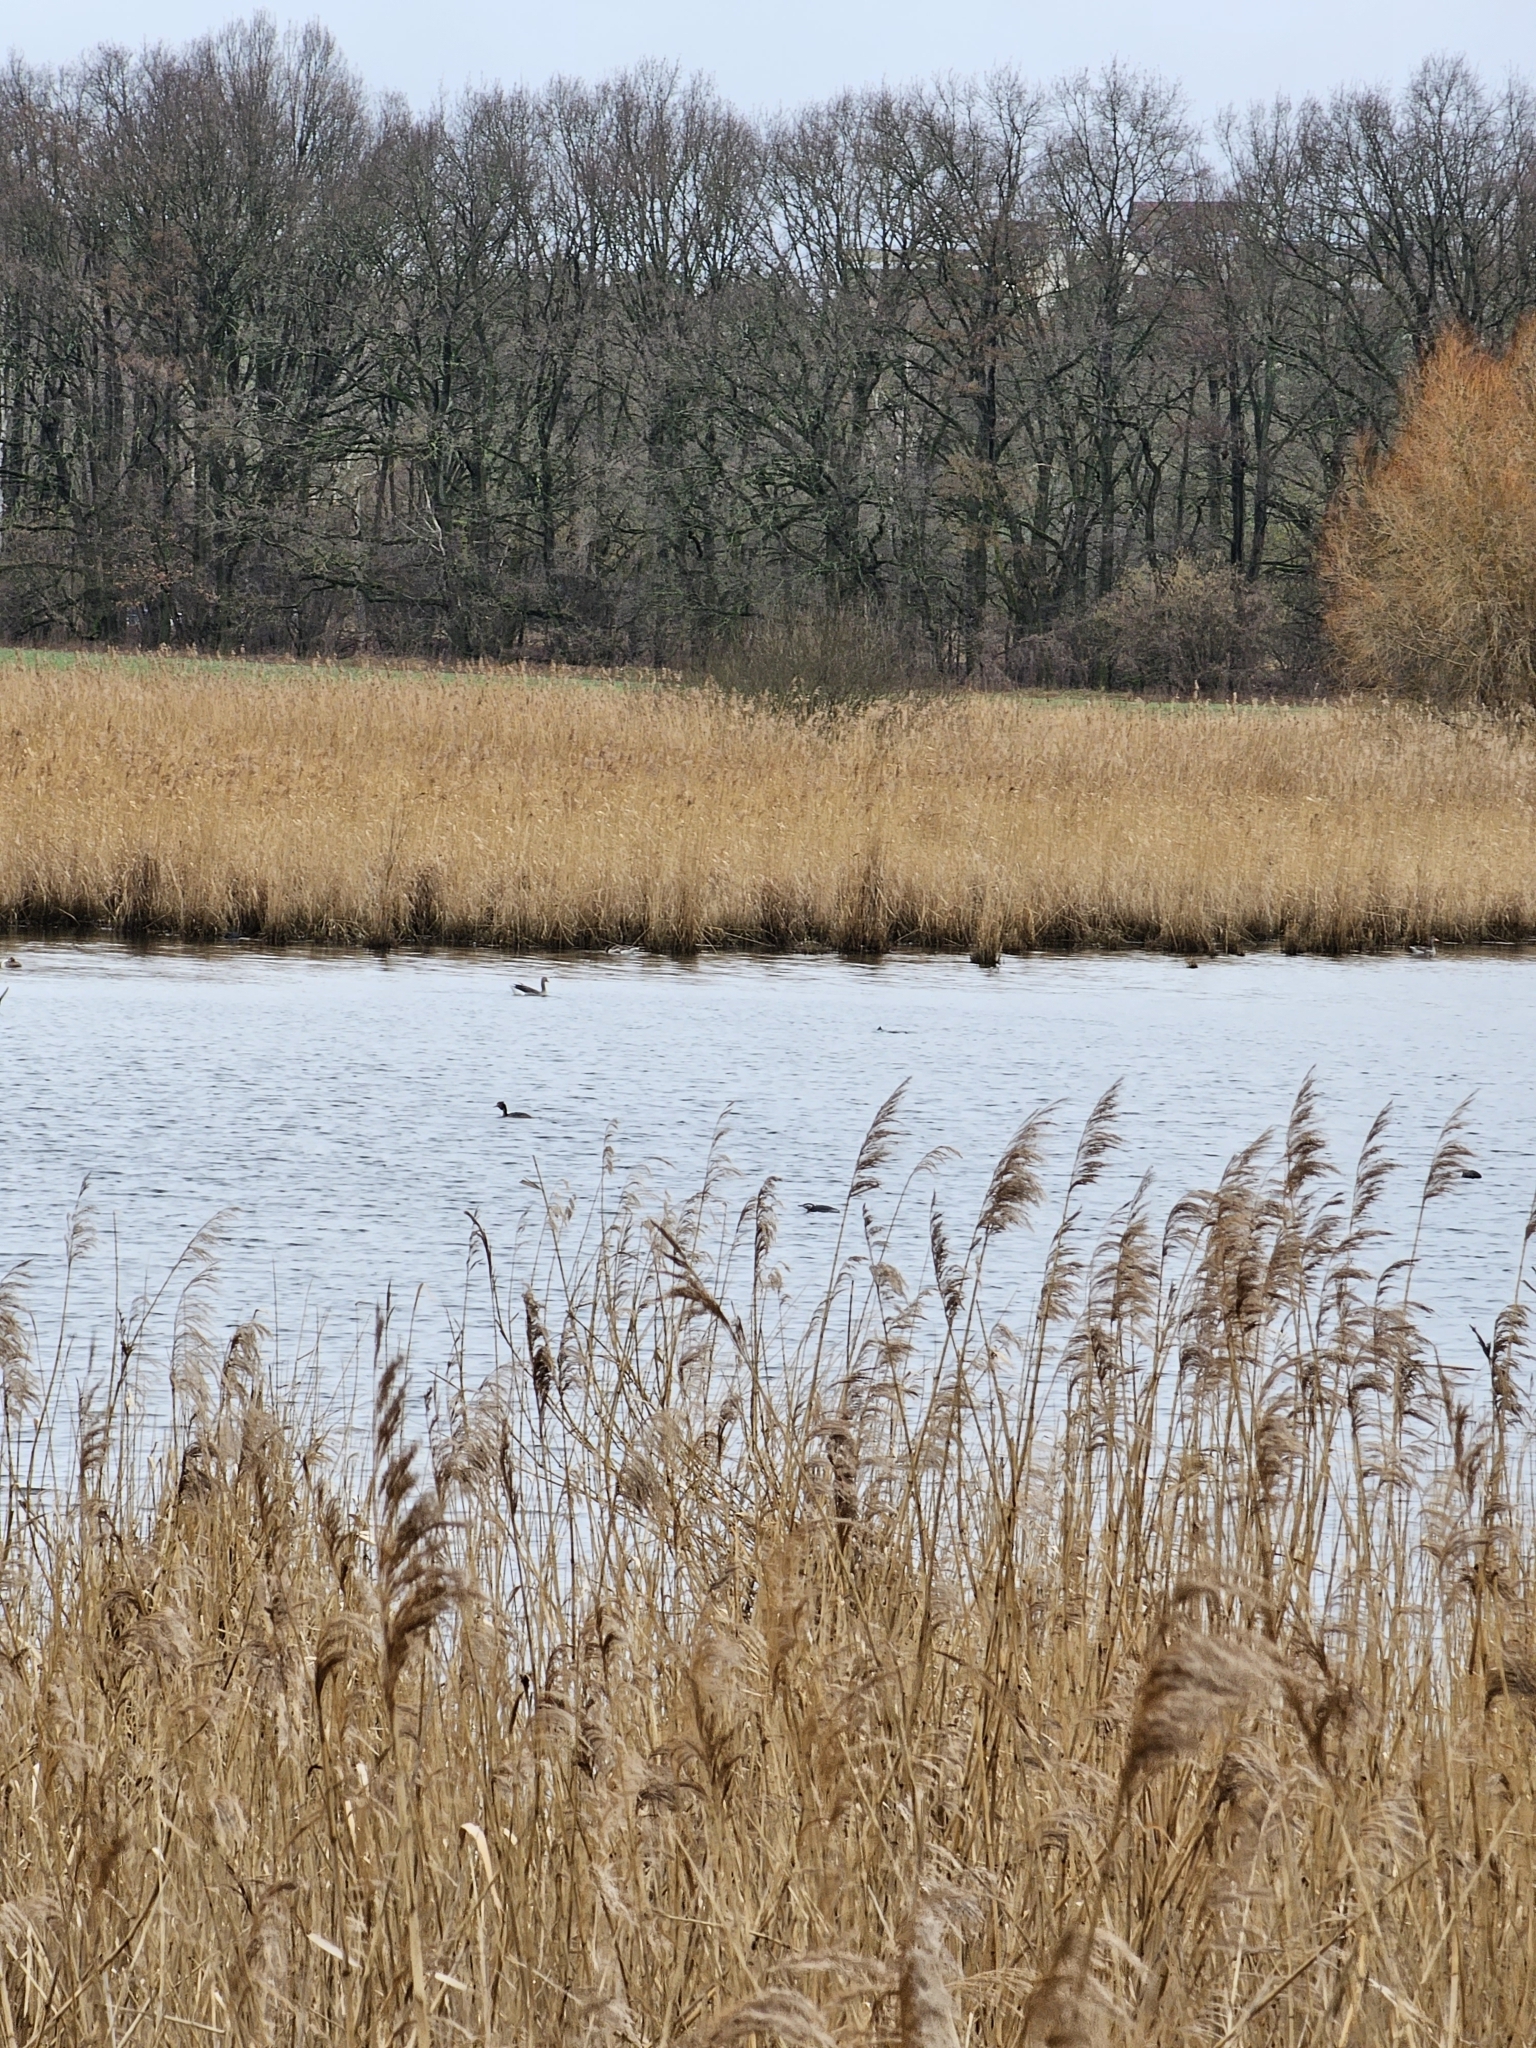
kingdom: Animalia
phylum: Chordata
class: Aves
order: Anseriformes
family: Anatidae
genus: Anser
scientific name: Anser anser
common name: Greylag goose
